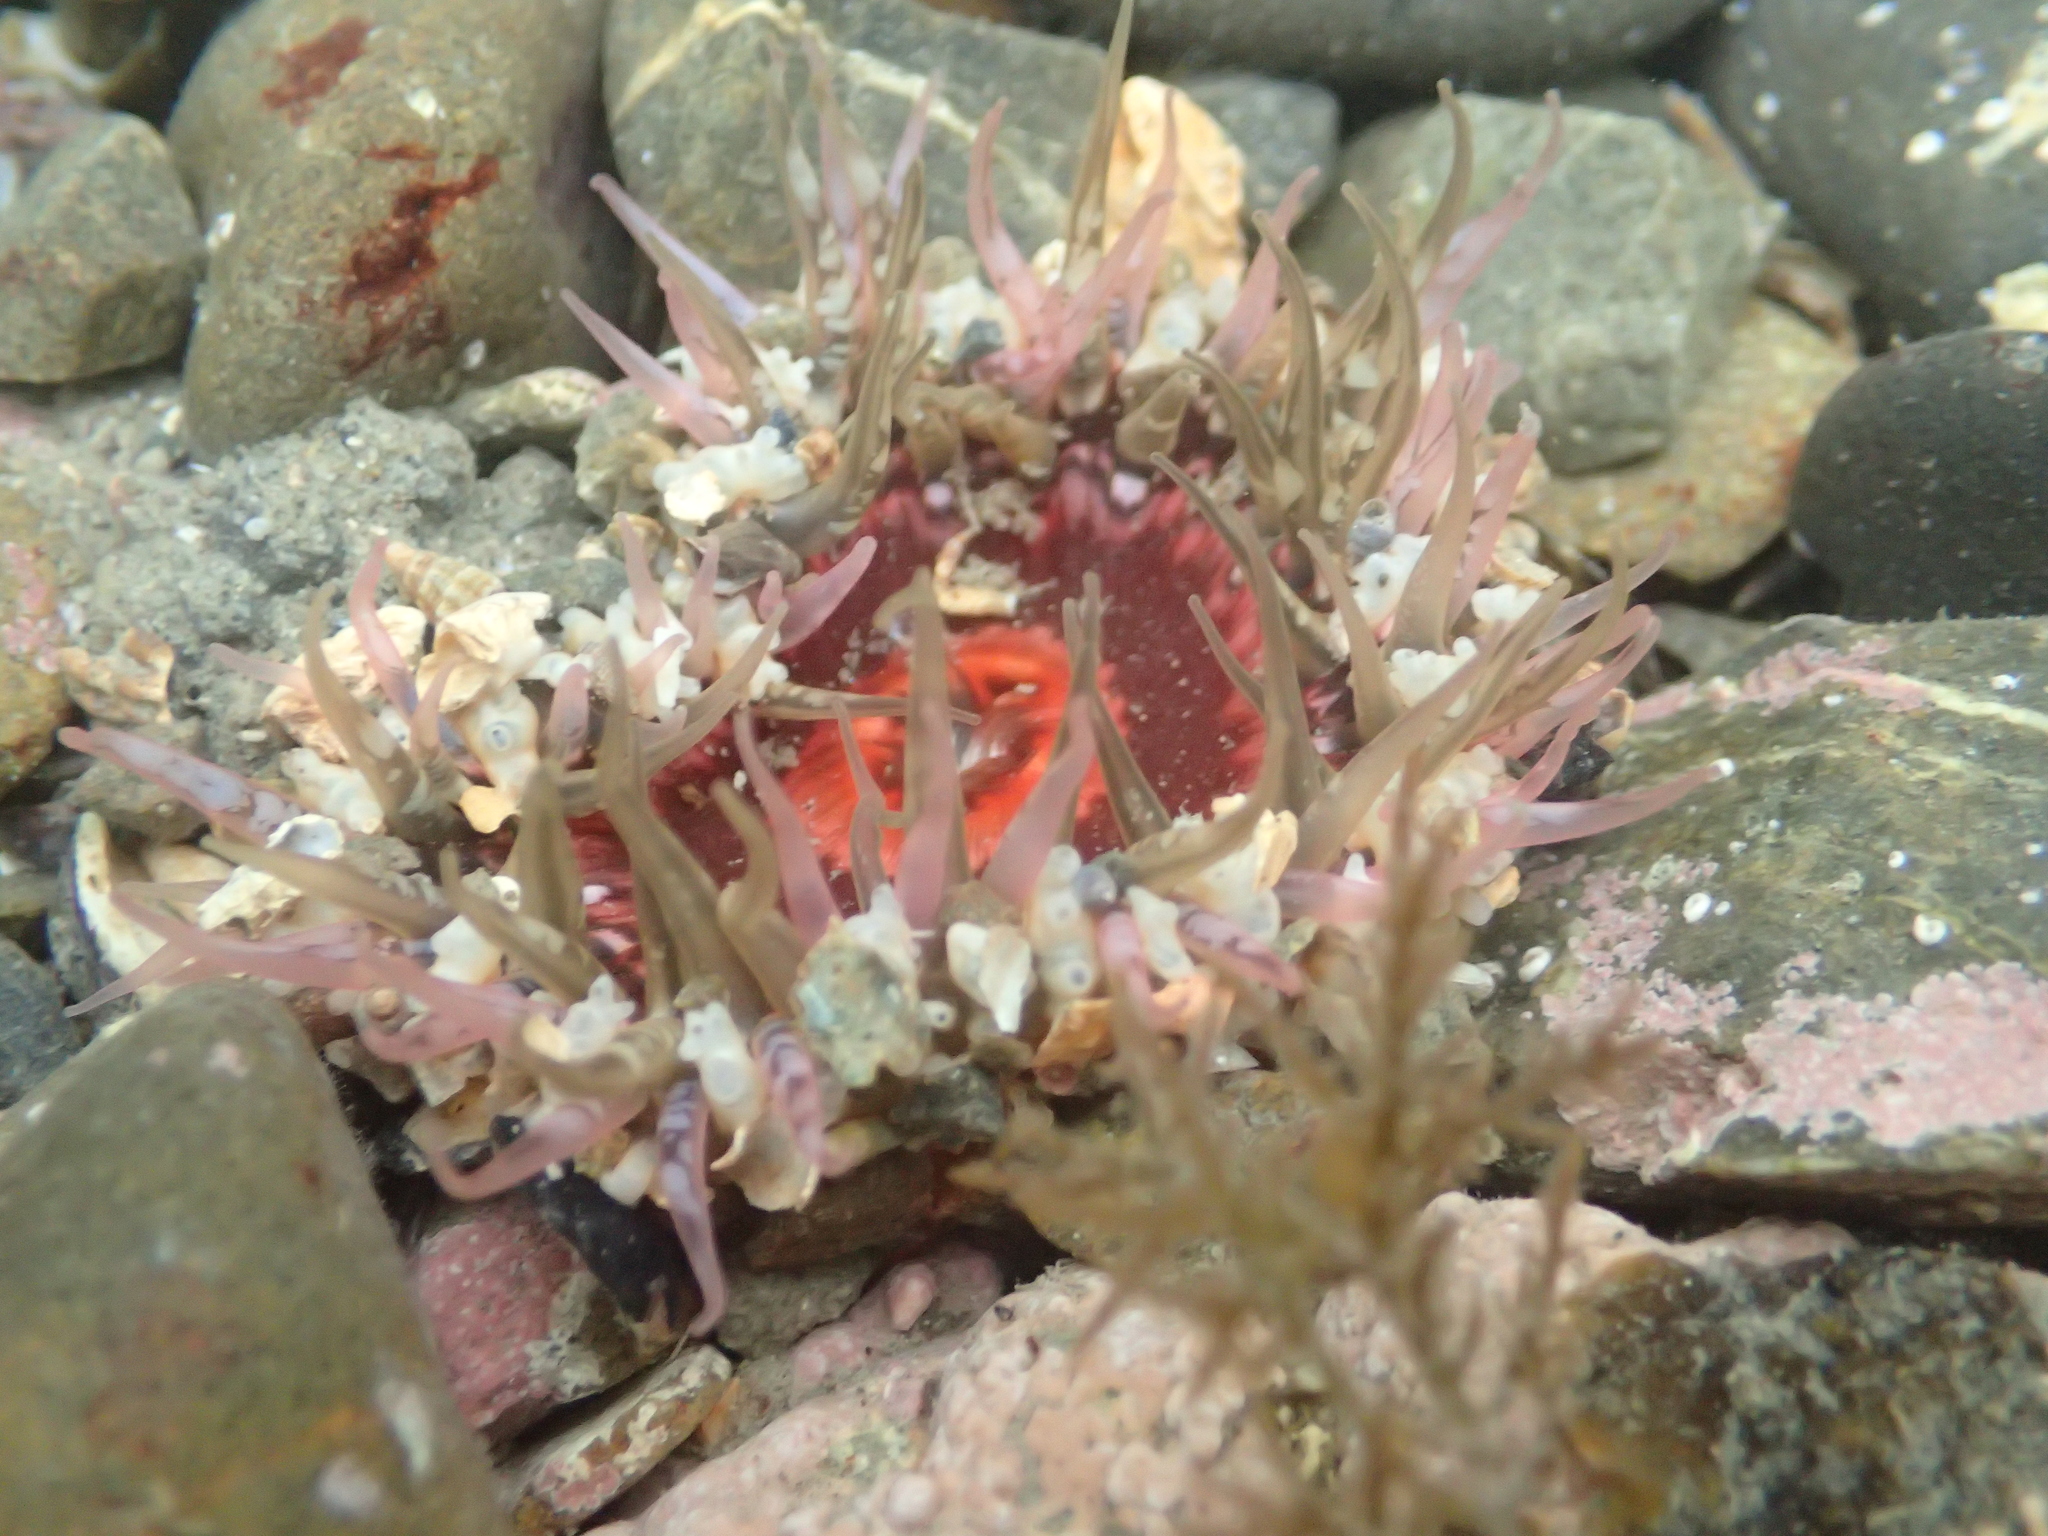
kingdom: Animalia
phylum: Cnidaria
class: Anthozoa
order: Actiniaria
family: Actiniidae
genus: Oulactis
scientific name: Oulactis muscosa
